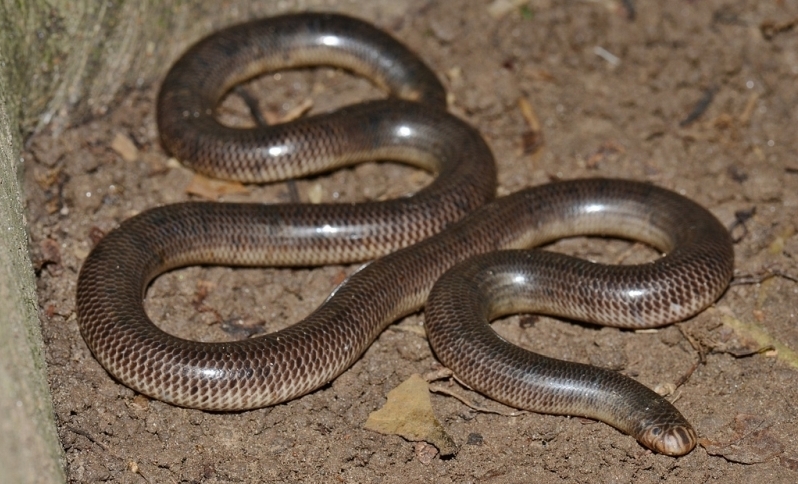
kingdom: Animalia
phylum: Chordata
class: Squamata
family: Typhlopidae
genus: Anilios
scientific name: Anilios torresianus
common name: Torres strait blindsnake
